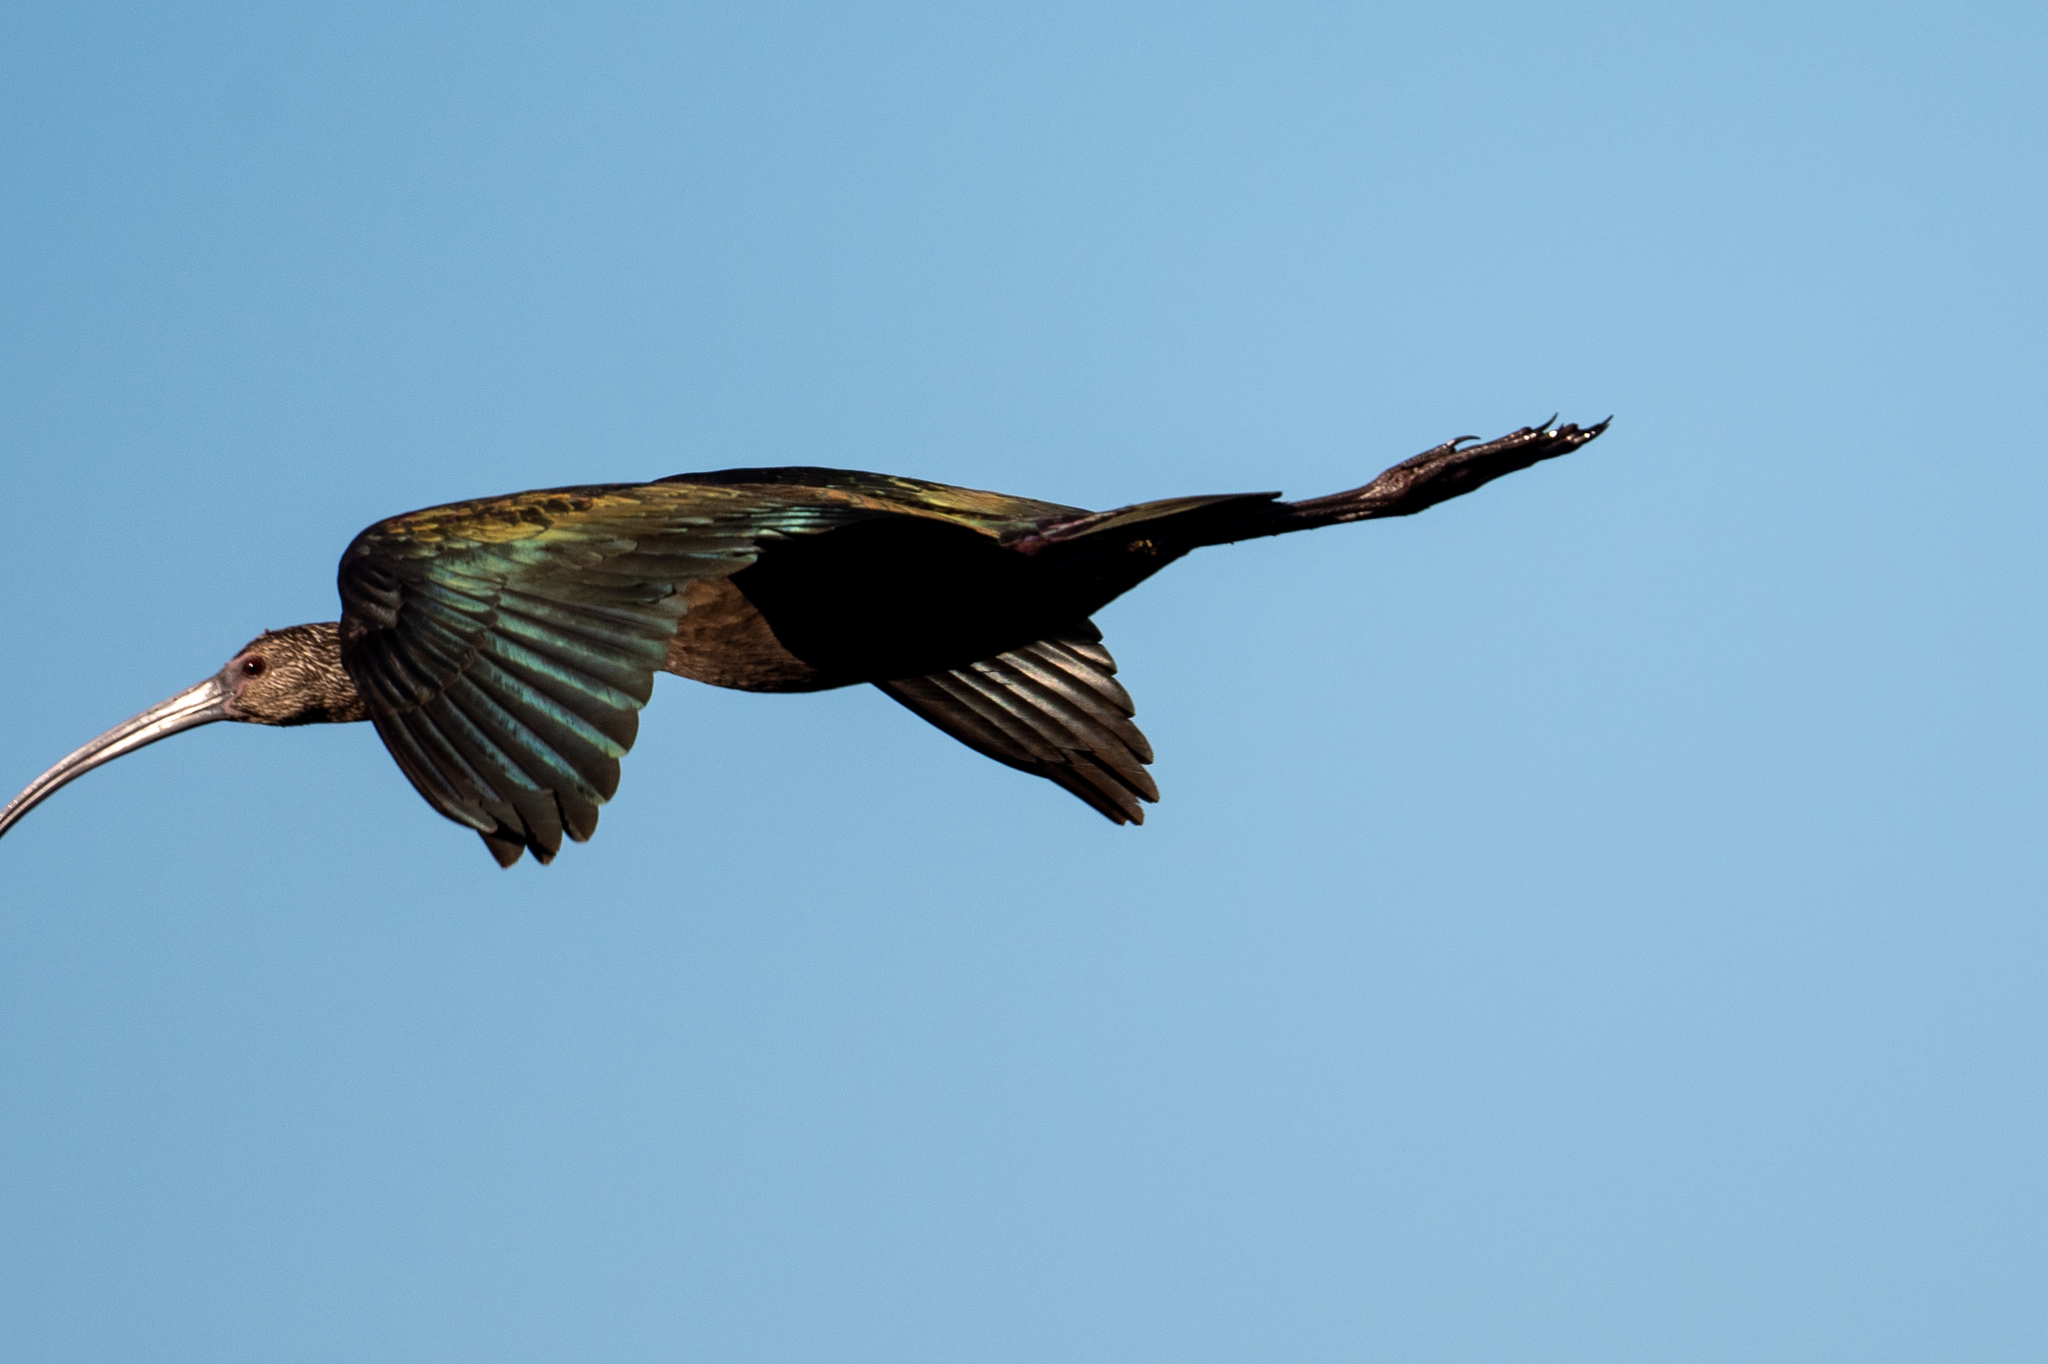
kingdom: Animalia
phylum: Chordata
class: Aves
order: Pelecaniformes
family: Threskiornithidae
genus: Plegadis
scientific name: Plegadis chihi
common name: White-faced ibis
